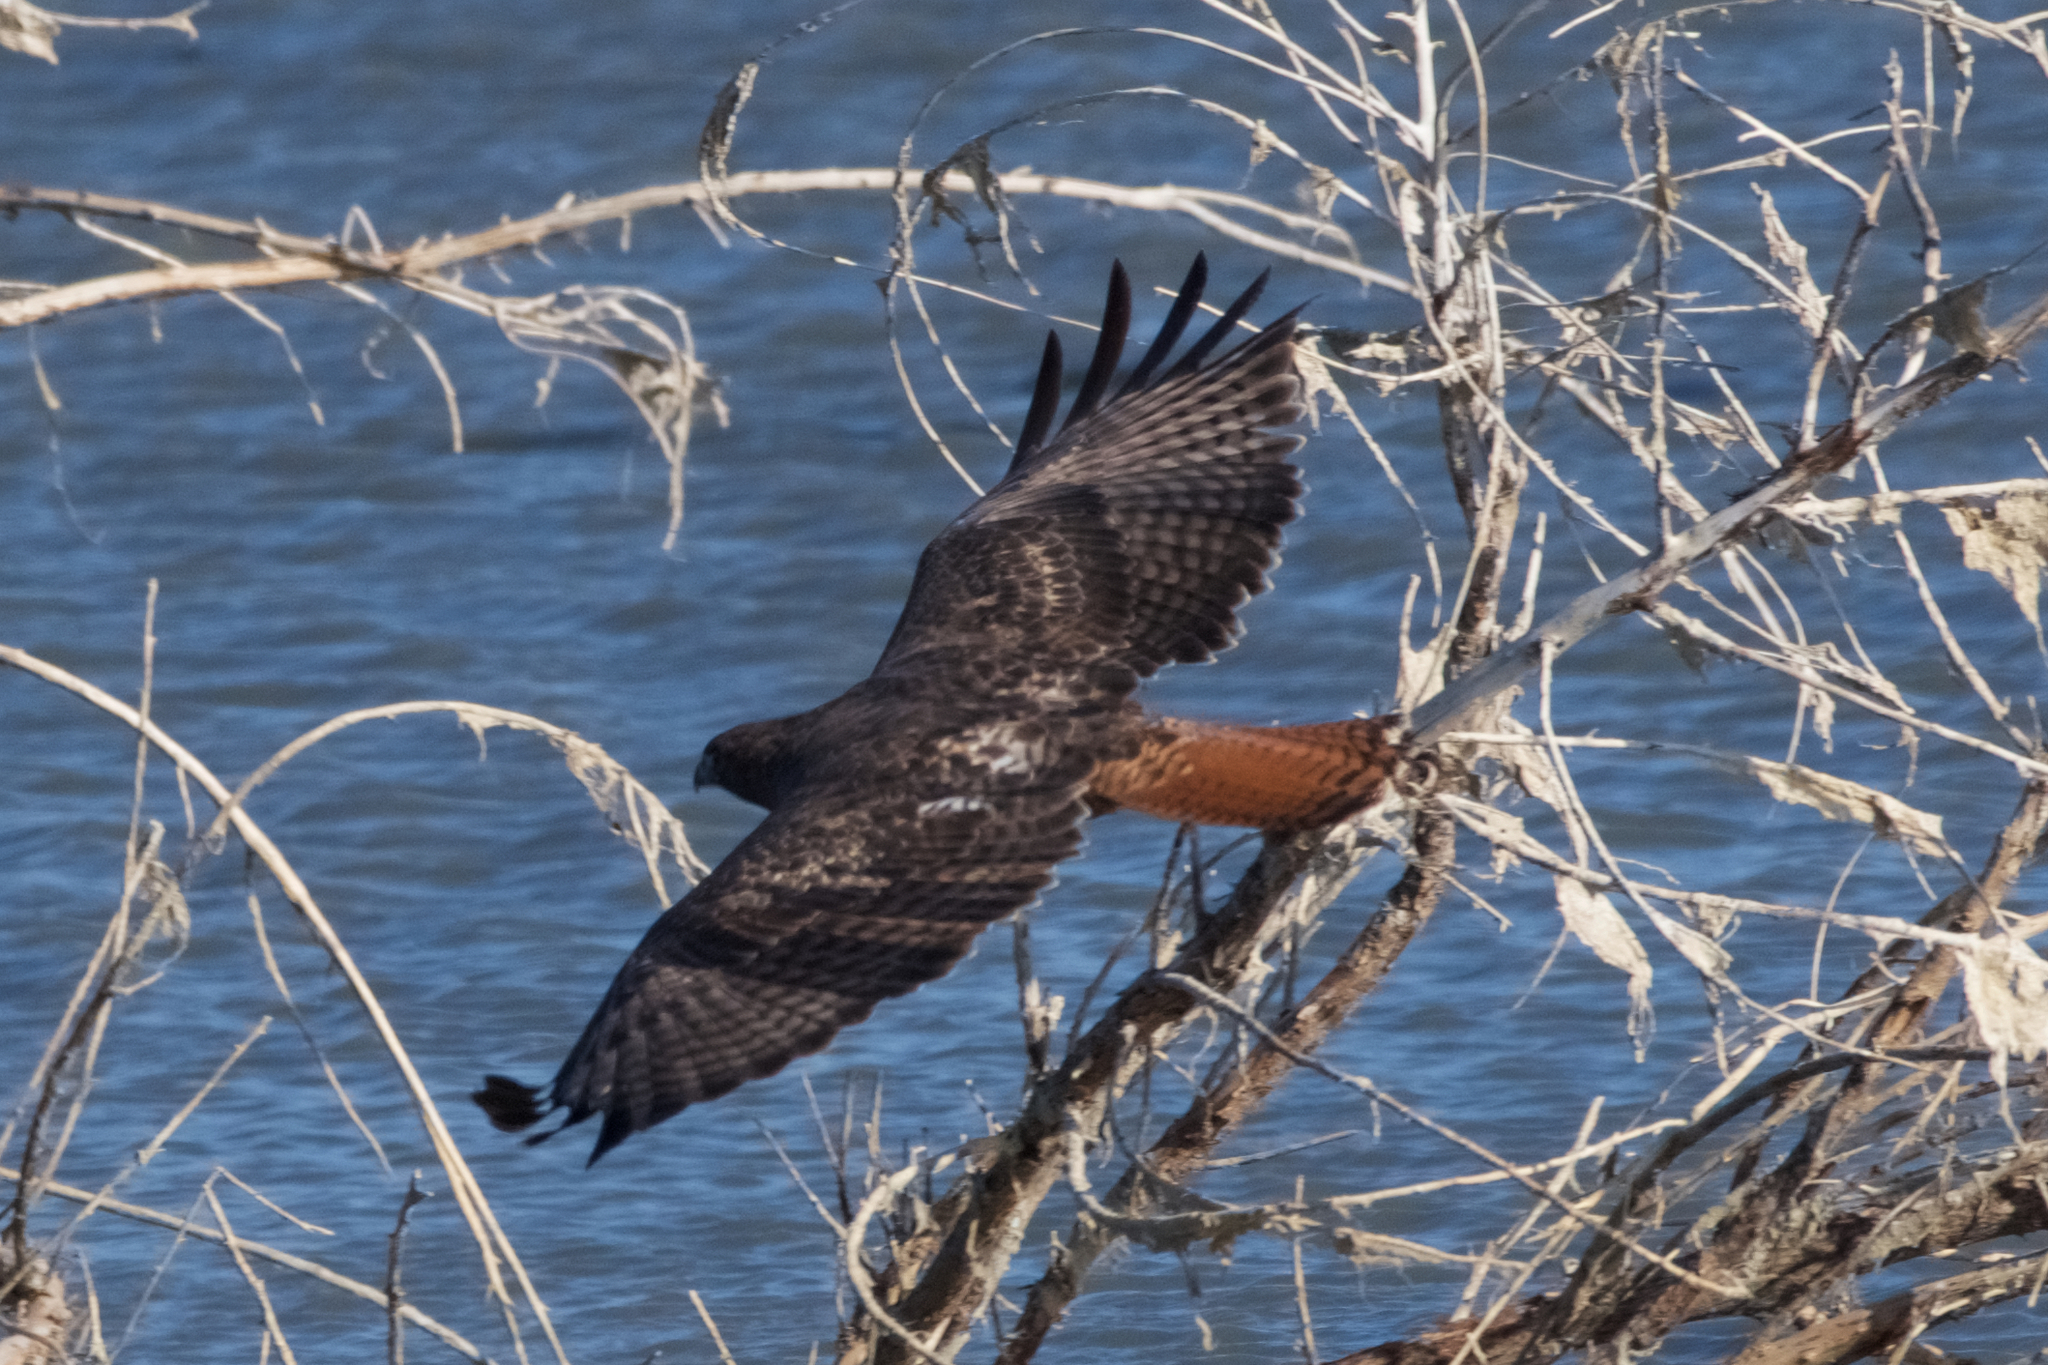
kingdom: Animalia
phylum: Chordata
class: Aves
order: Accipitriformes
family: Accipitridae
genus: Buteo
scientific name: Buteo jamaicensis
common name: Red-tailed hawk
